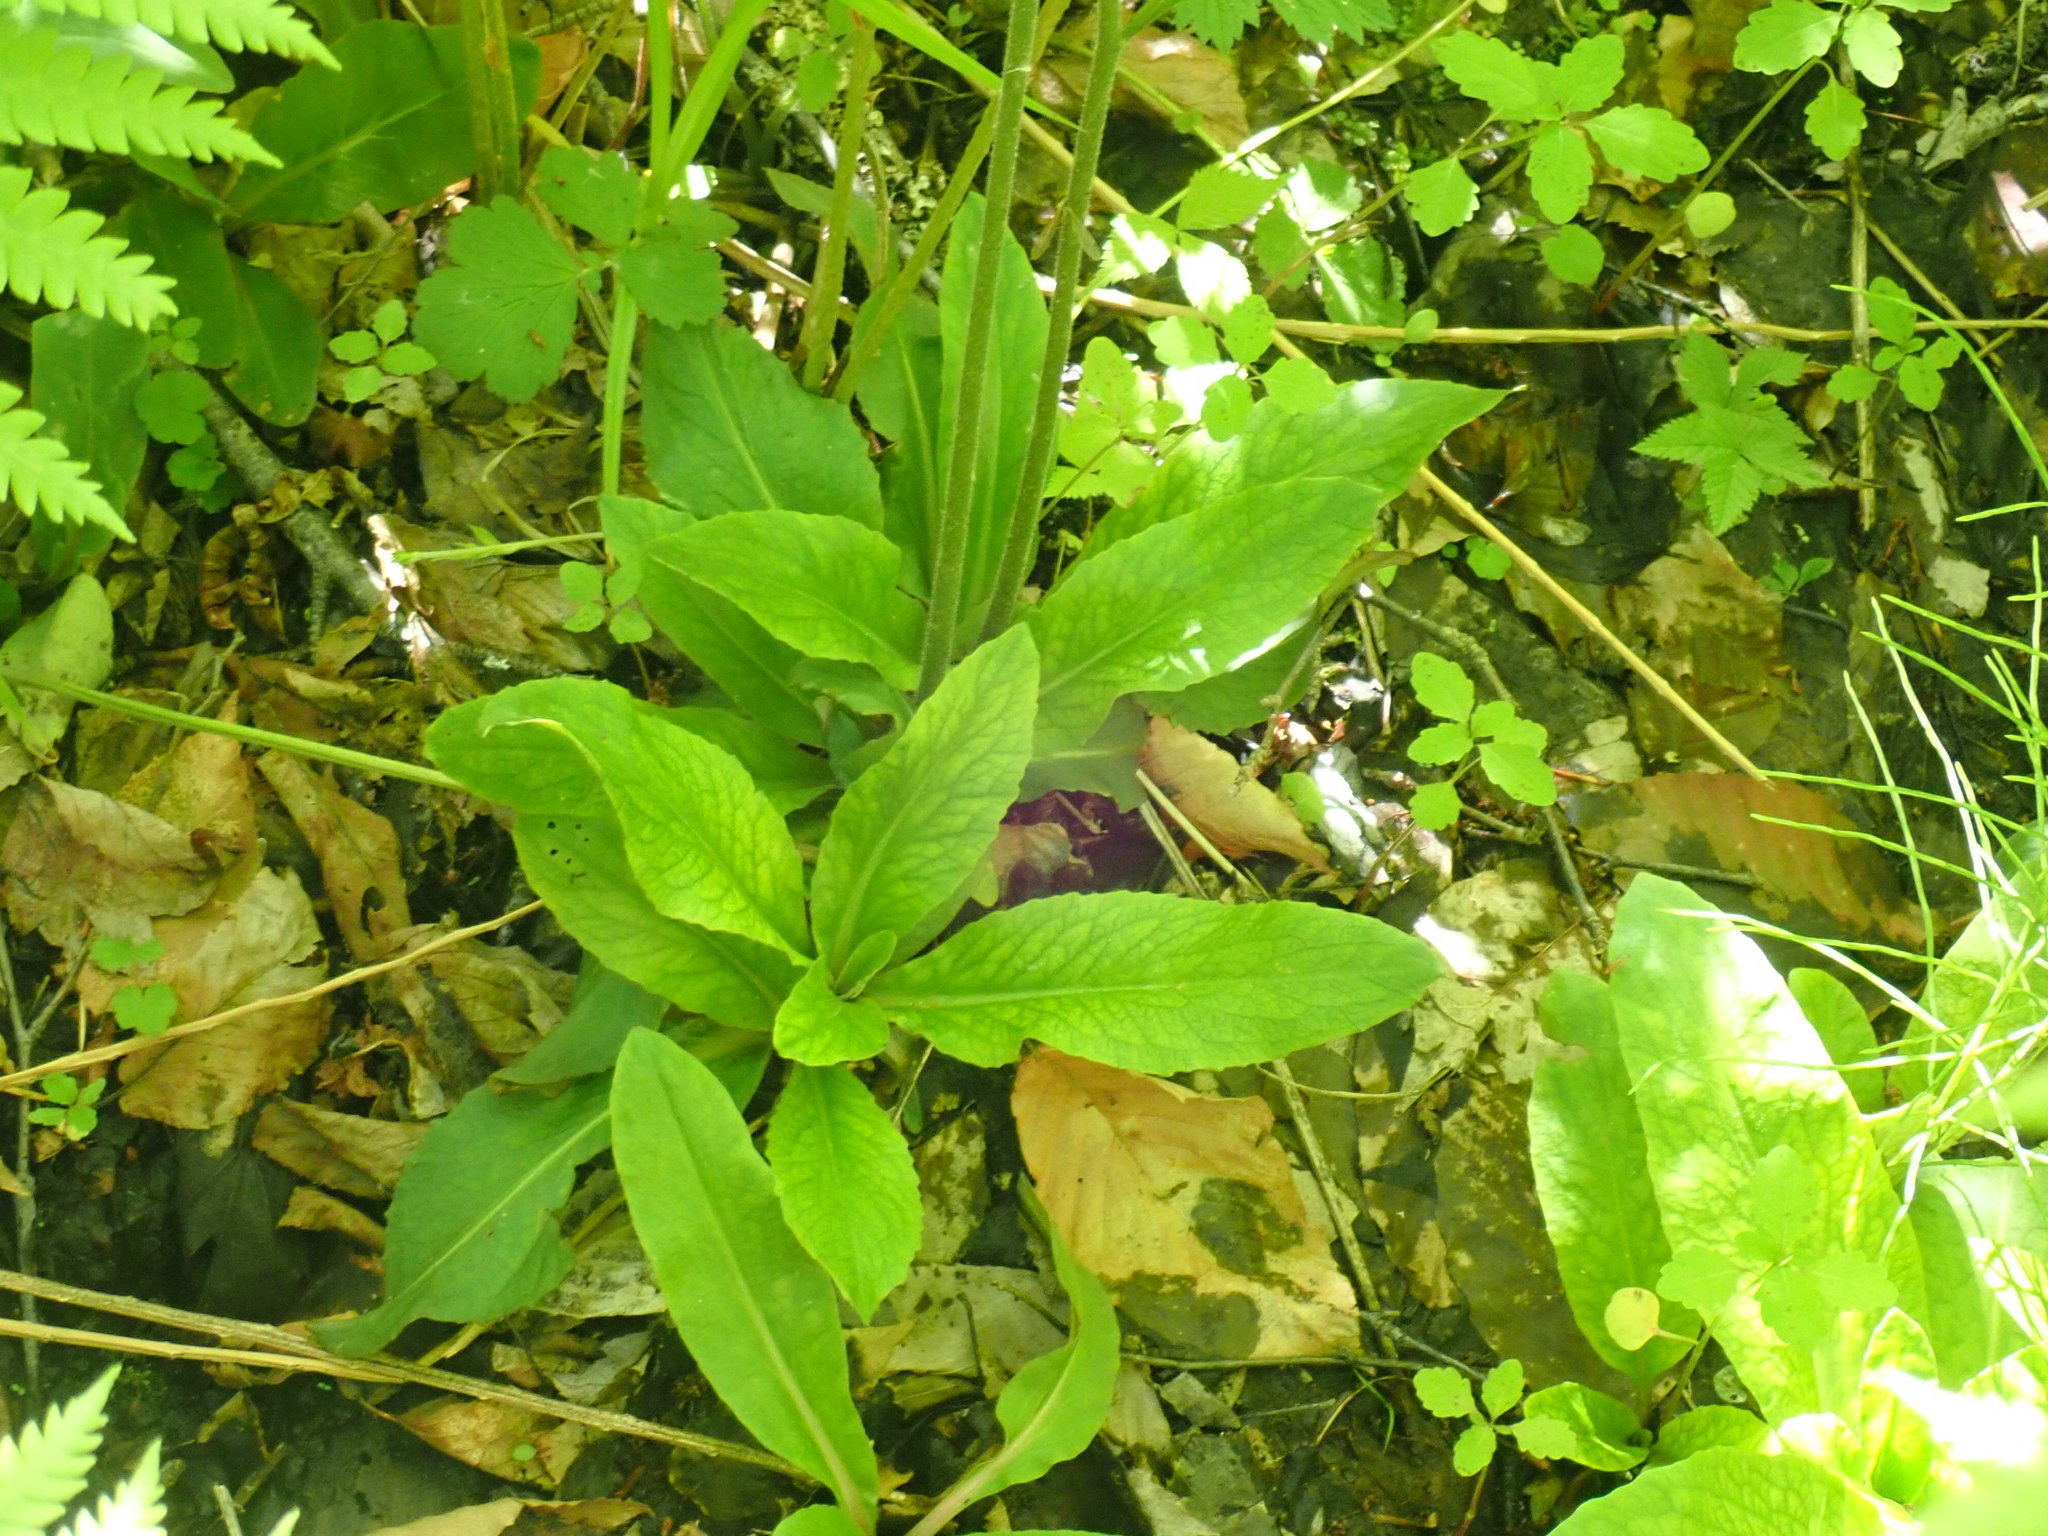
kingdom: Plantae
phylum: Tracheophyta
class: Magnoliopsida
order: Saxifragales
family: Saxifragaceae
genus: Micranthes
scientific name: Micranthes pensylvanica
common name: Marsh saxifrage
